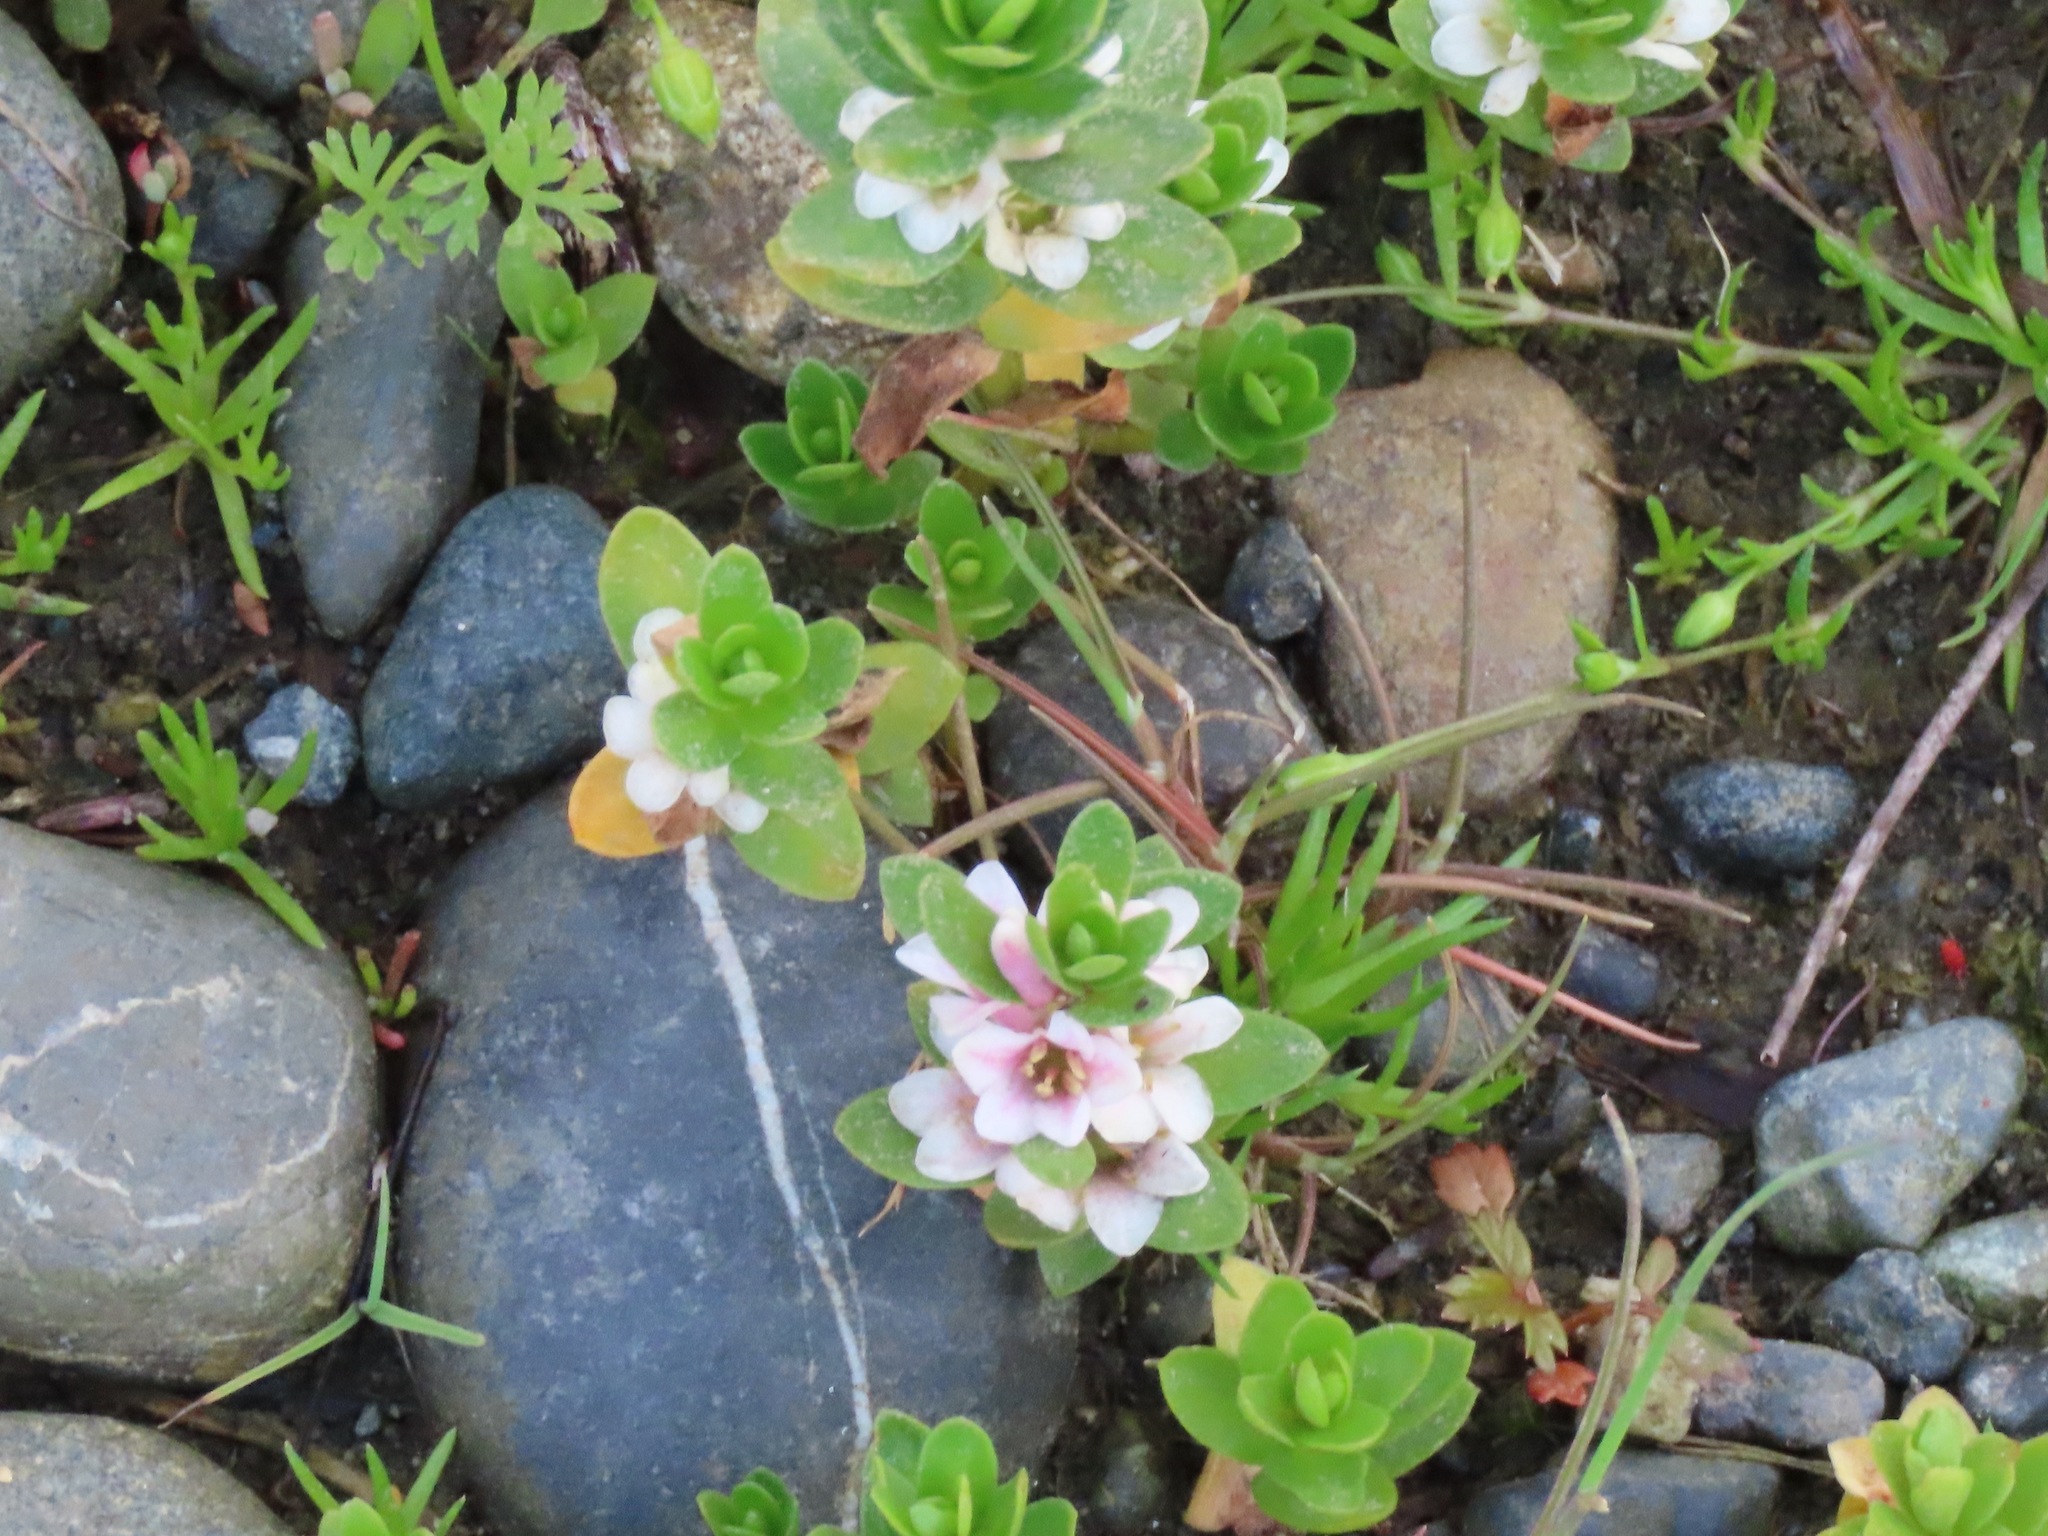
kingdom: Plantae
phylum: Tracheophyta
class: Magnoliopsida
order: Ericales
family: Primulaceae
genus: Lysimachia
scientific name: Lysimachia maritima
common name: Sea milkwort
